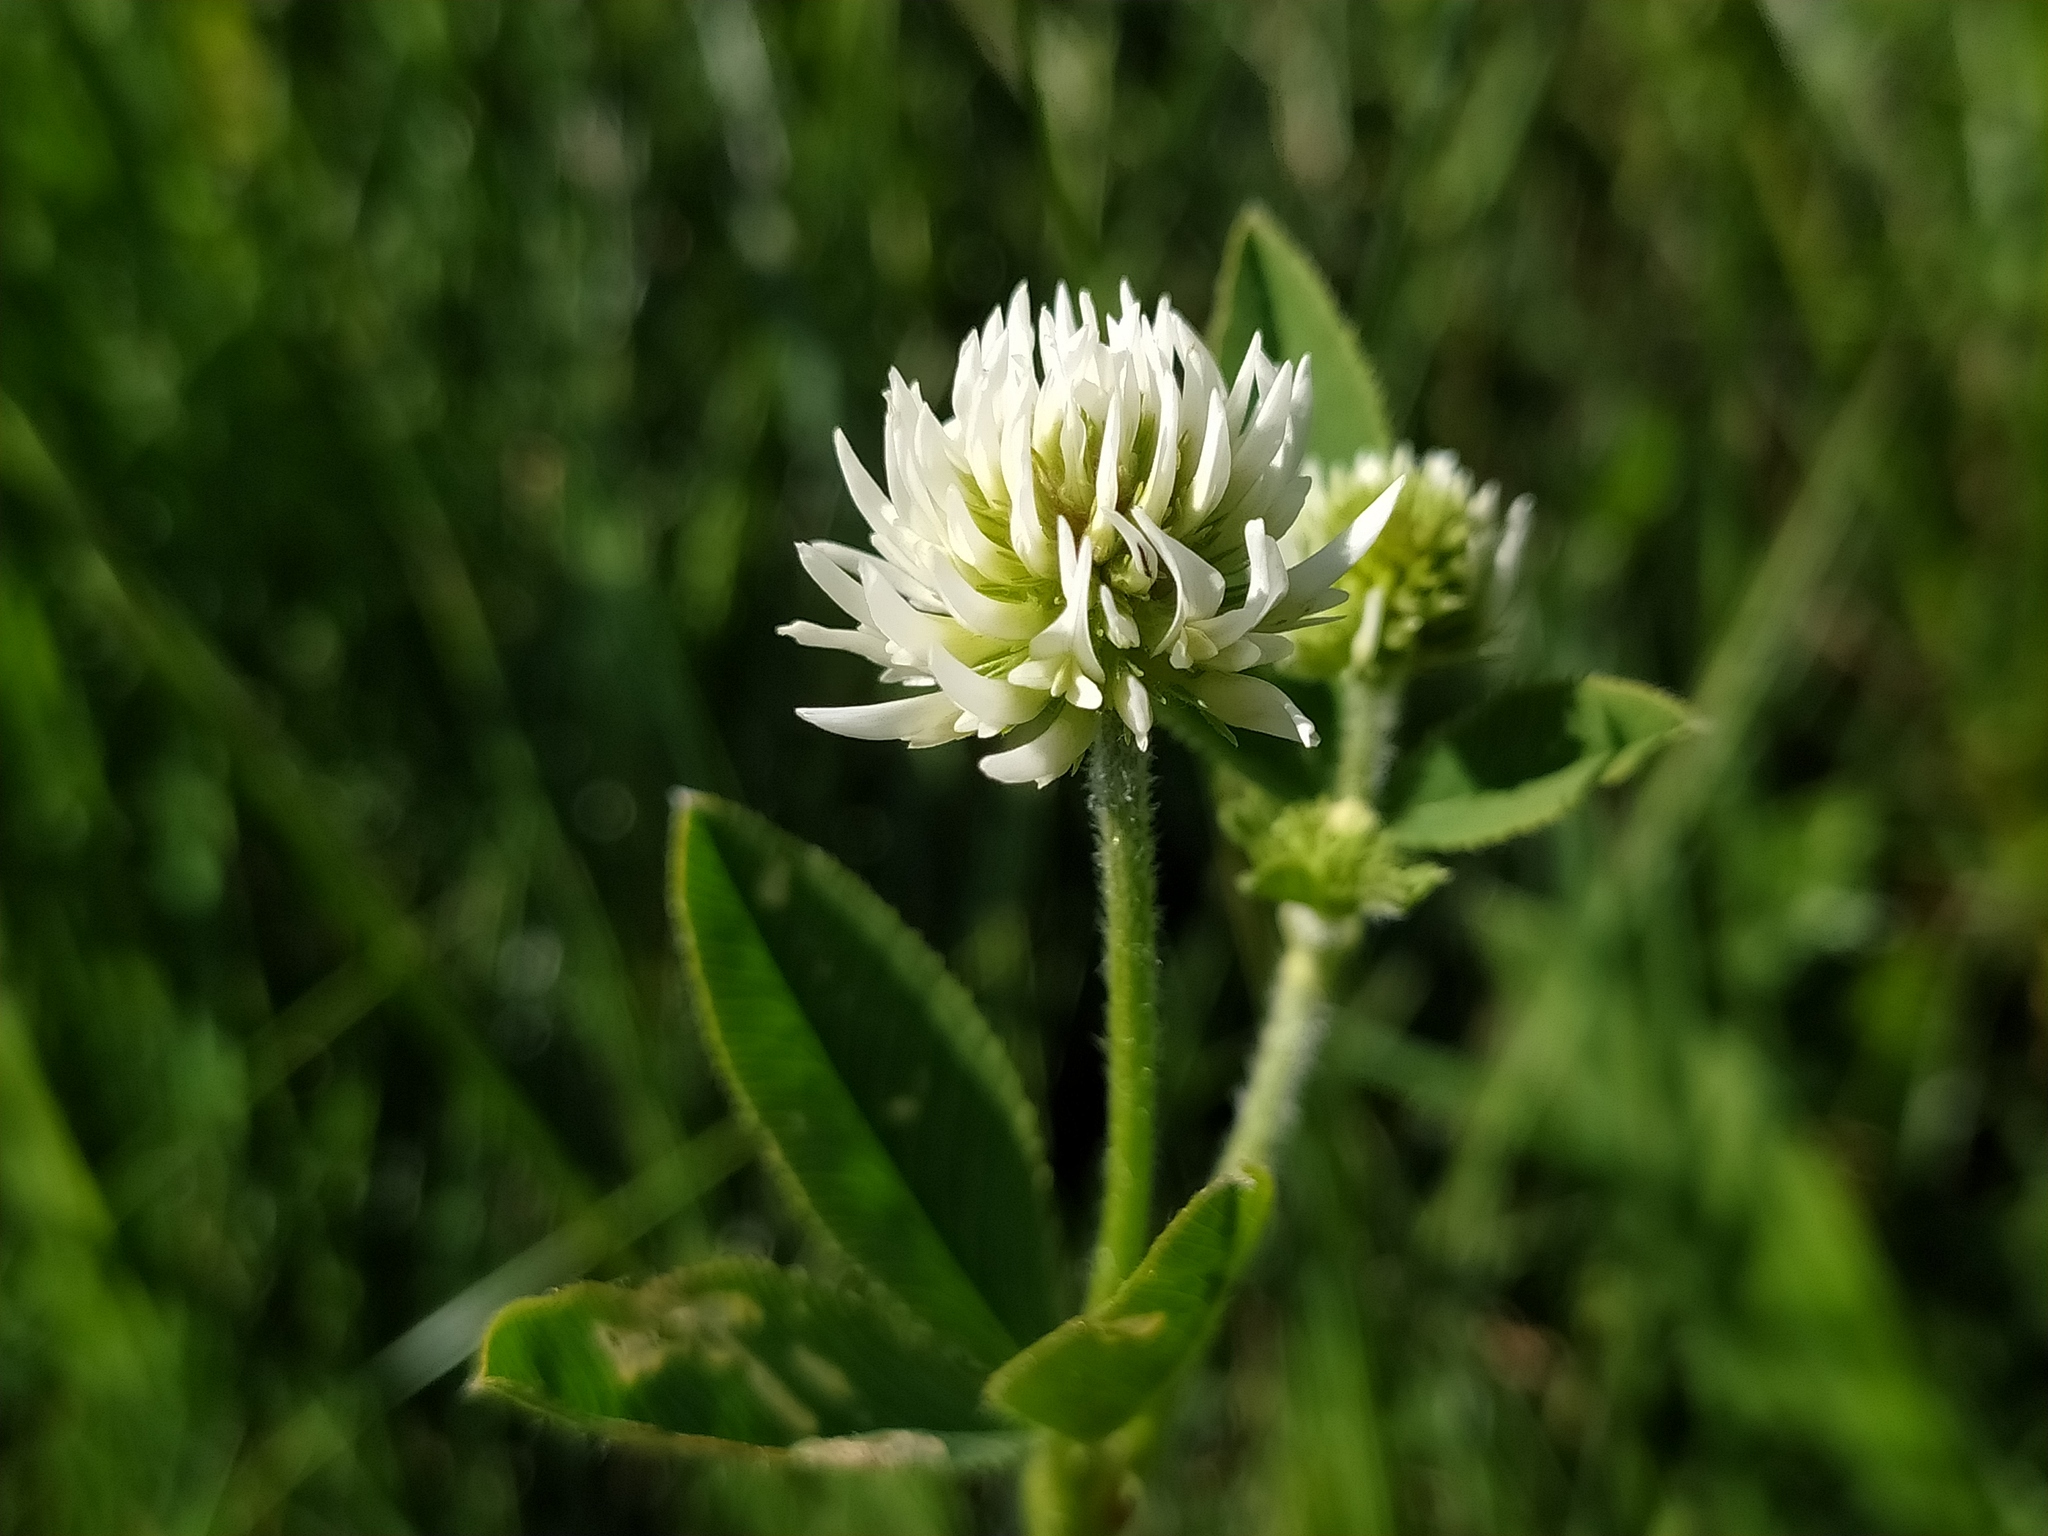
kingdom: Plantae
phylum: Tracheophyta
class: Magnoliopsida
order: Fabales
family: Fabaceae
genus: Trifolium
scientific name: Trifolium montanum
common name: Mountain clover
